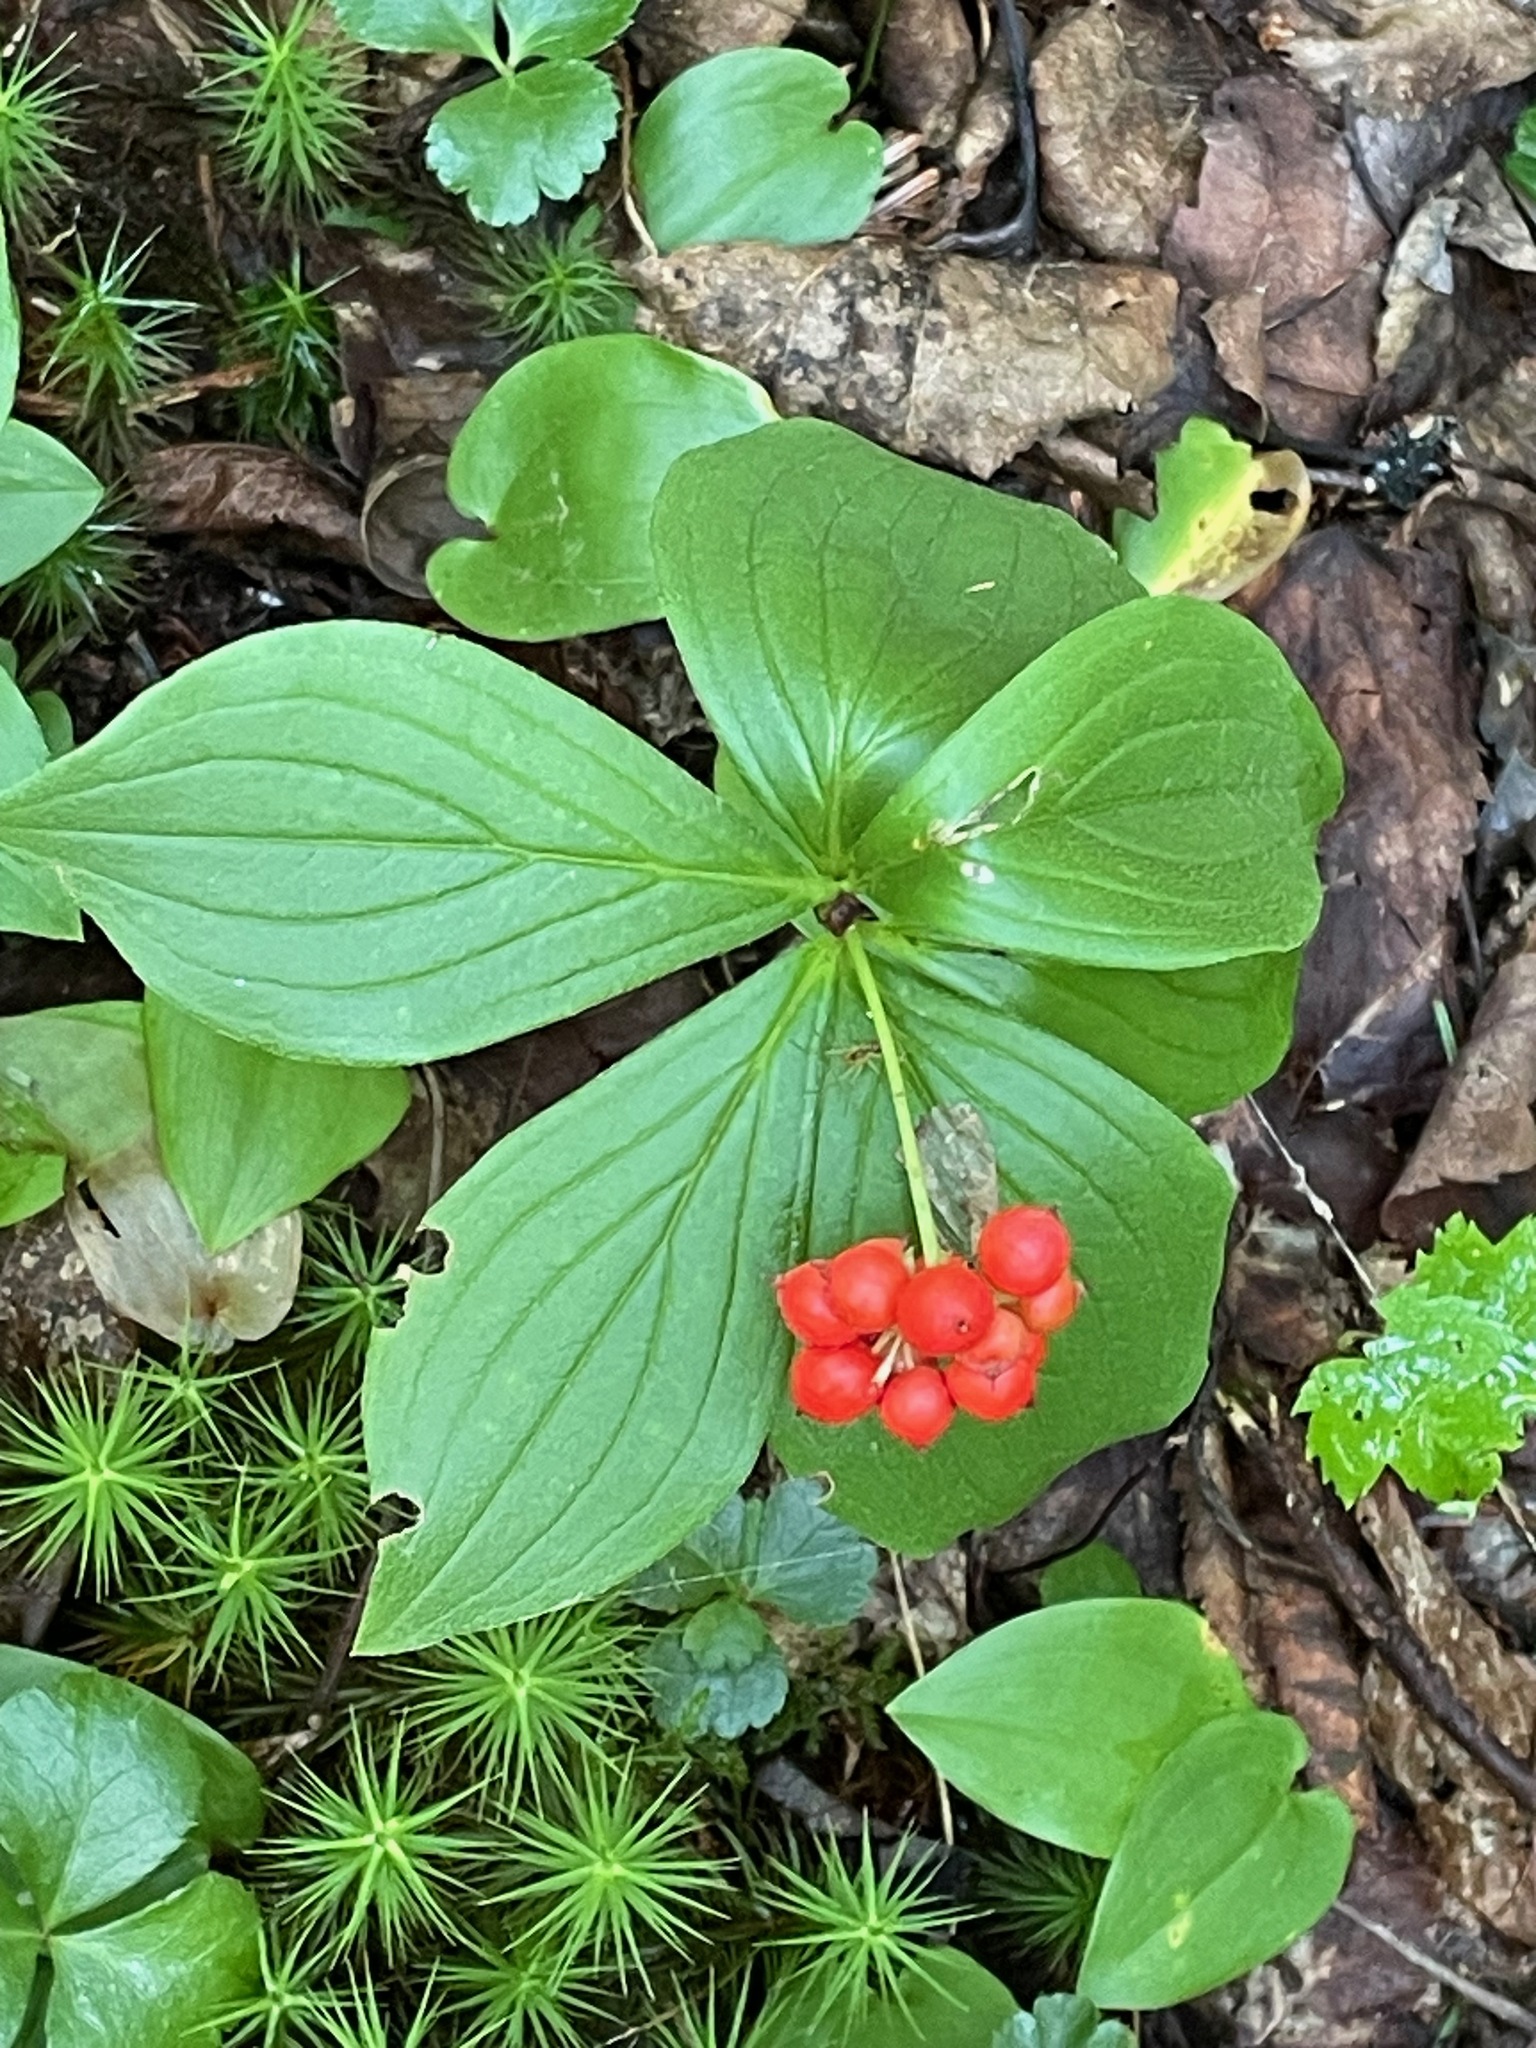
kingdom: Plantae
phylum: Tracheophyta
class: Magnoliopsida
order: Cornales
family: Cornaceae
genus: Cornus
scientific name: Cornus canadensis
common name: Creeping dogwood
